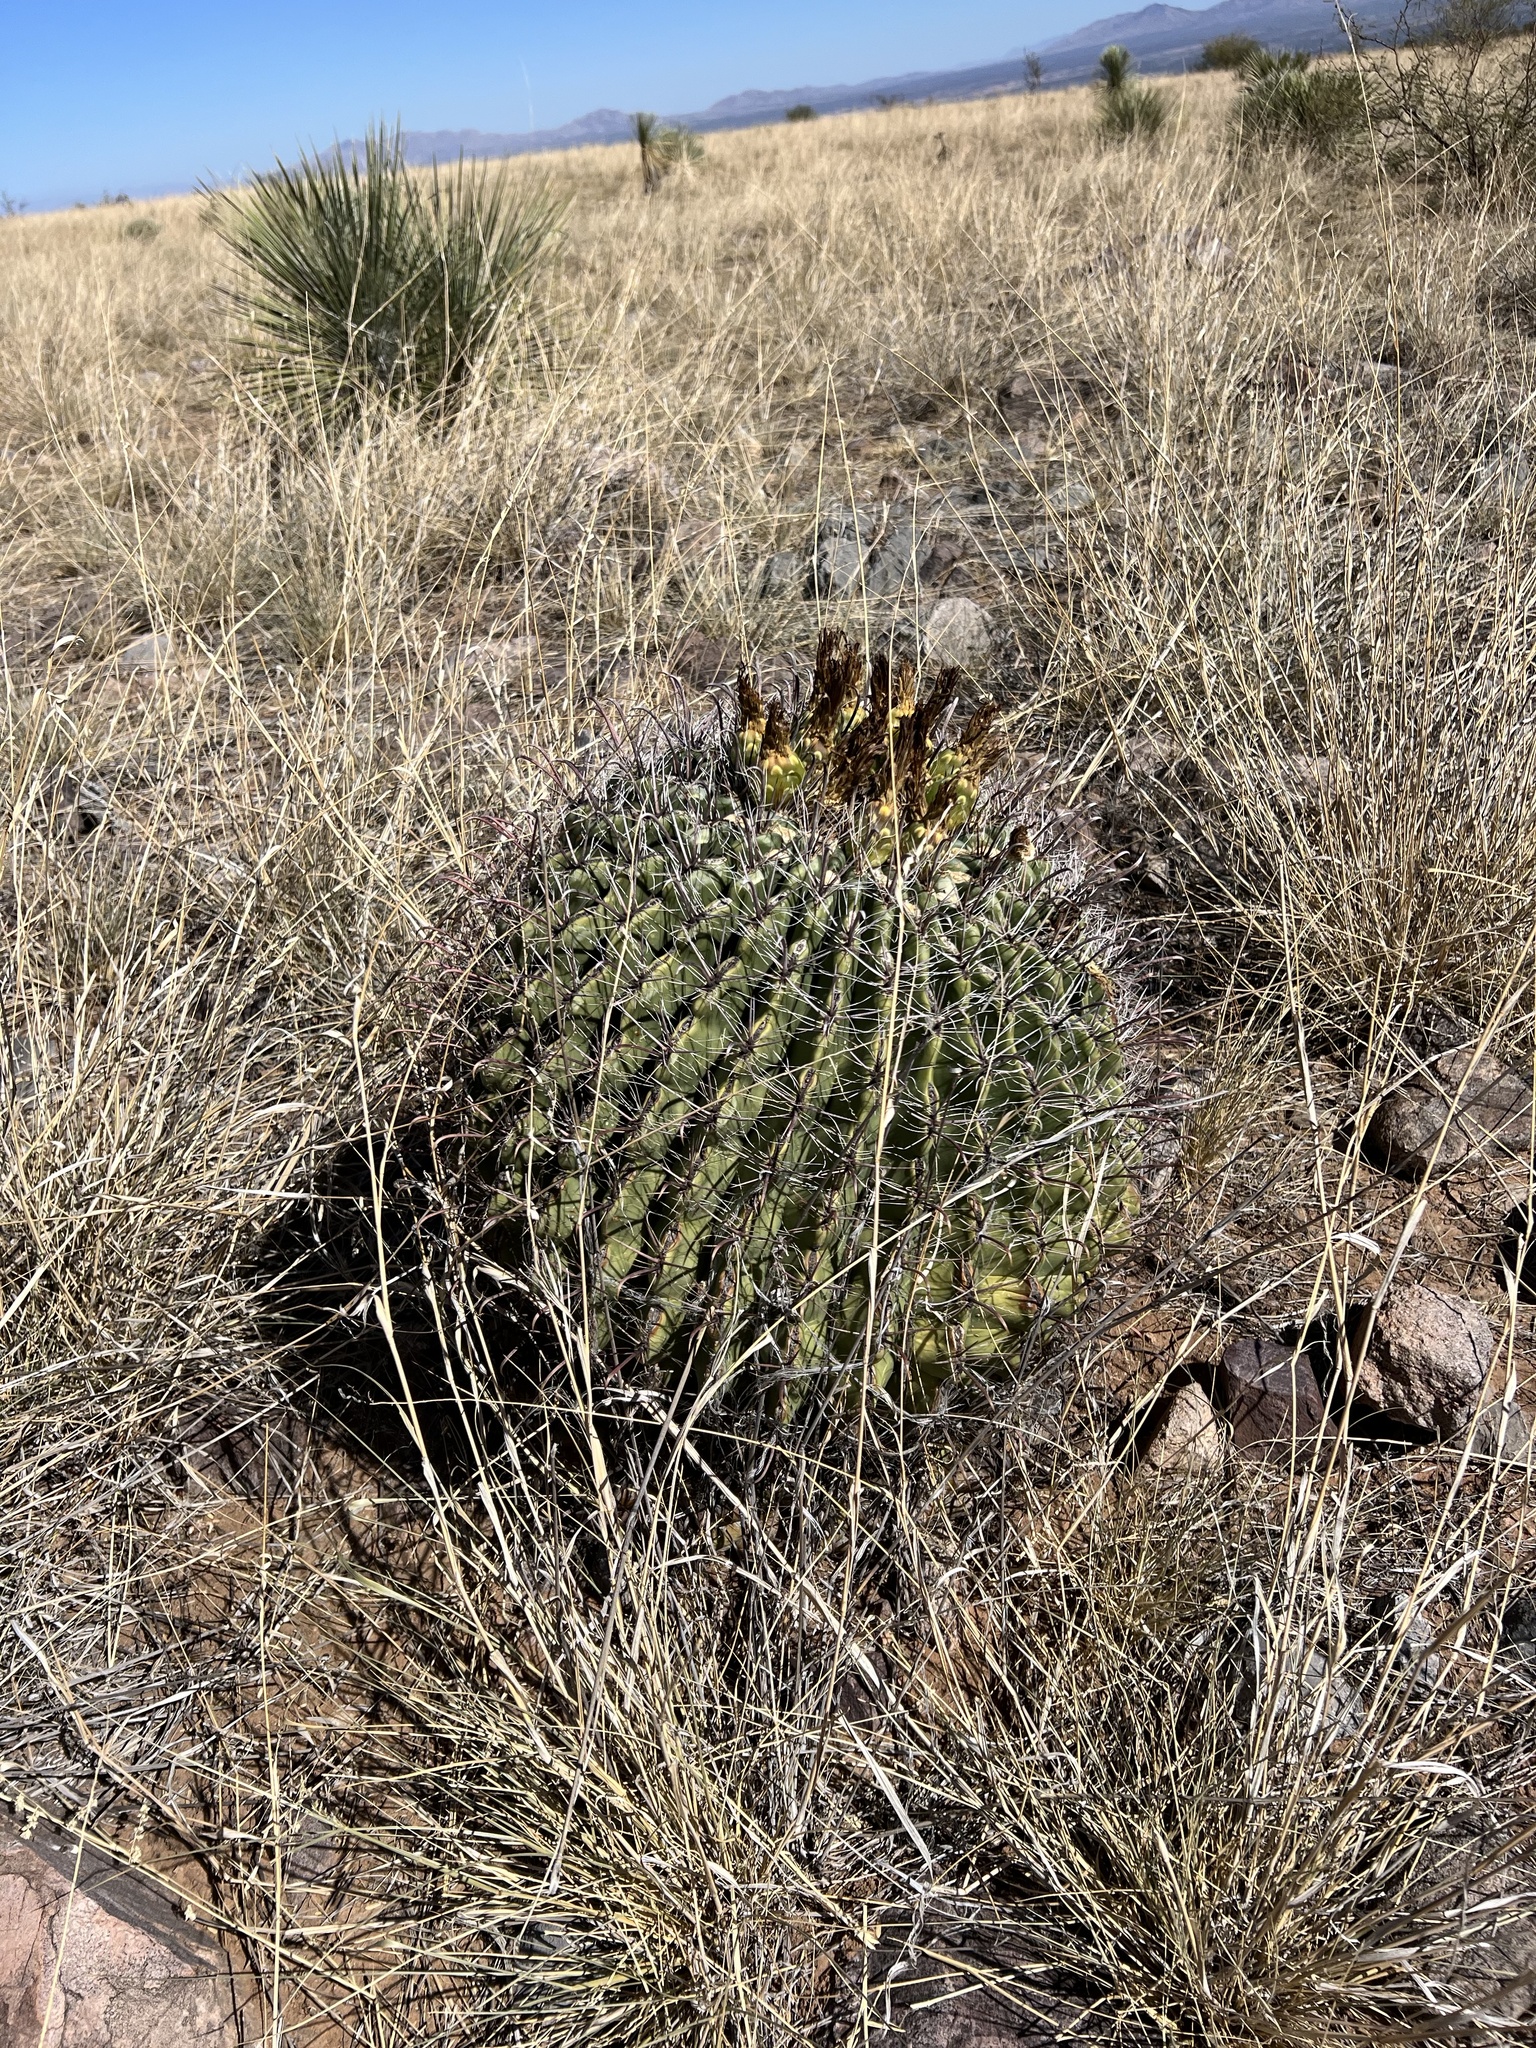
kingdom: Plantae
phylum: Tracheophyta
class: Magnoliopsida
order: Caryophyllales
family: Cactaceae
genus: Ferocactus
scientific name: Ferocactus wislizeni
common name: Candy barrel cactus
